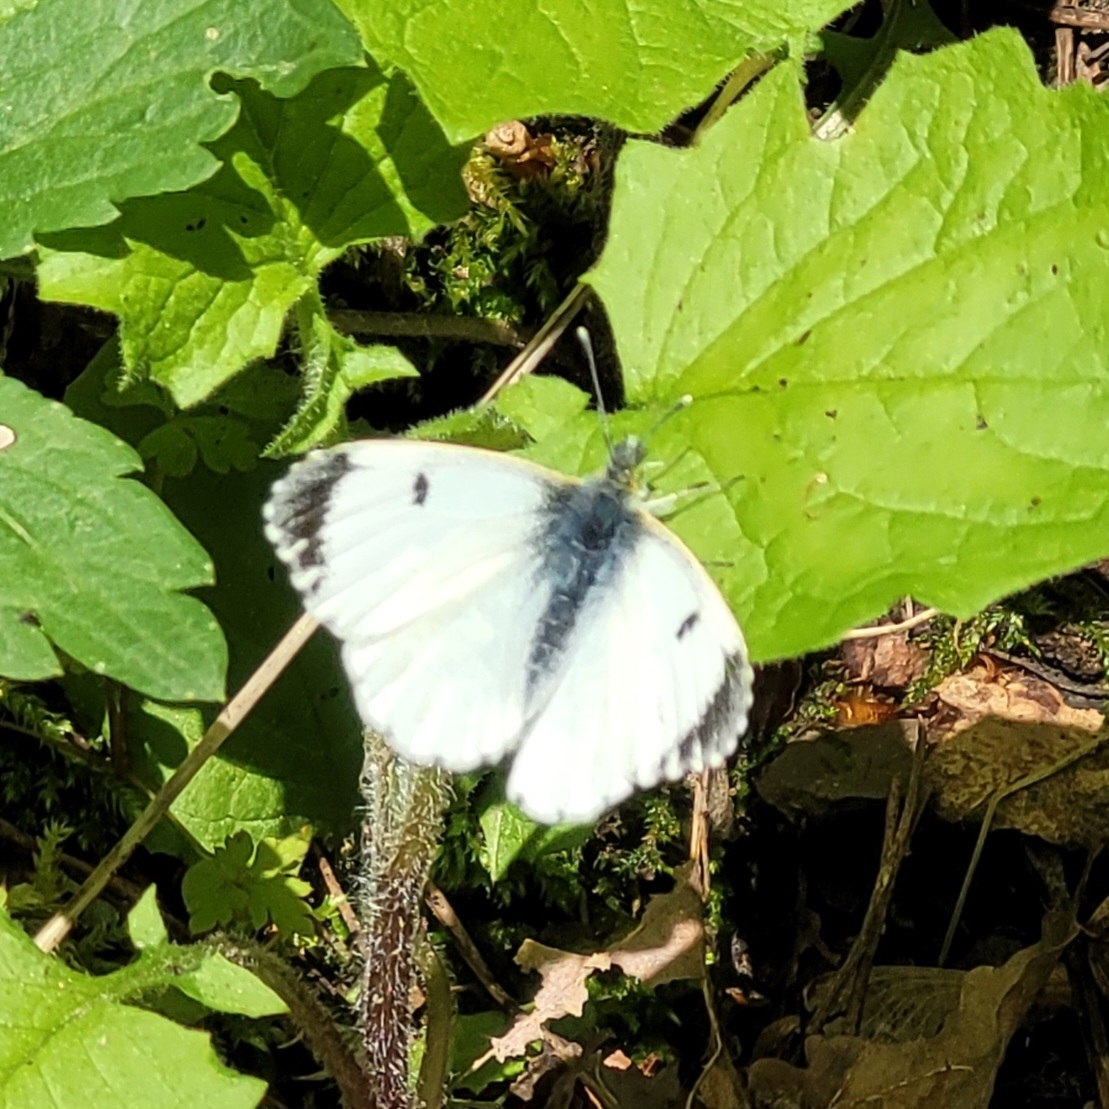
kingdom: Animalia
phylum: Arthropoda
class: Insecta
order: Lepidoptera
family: Pieridae
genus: Anthocharis
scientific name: Anthocharis cardamines
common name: Orange-tip
